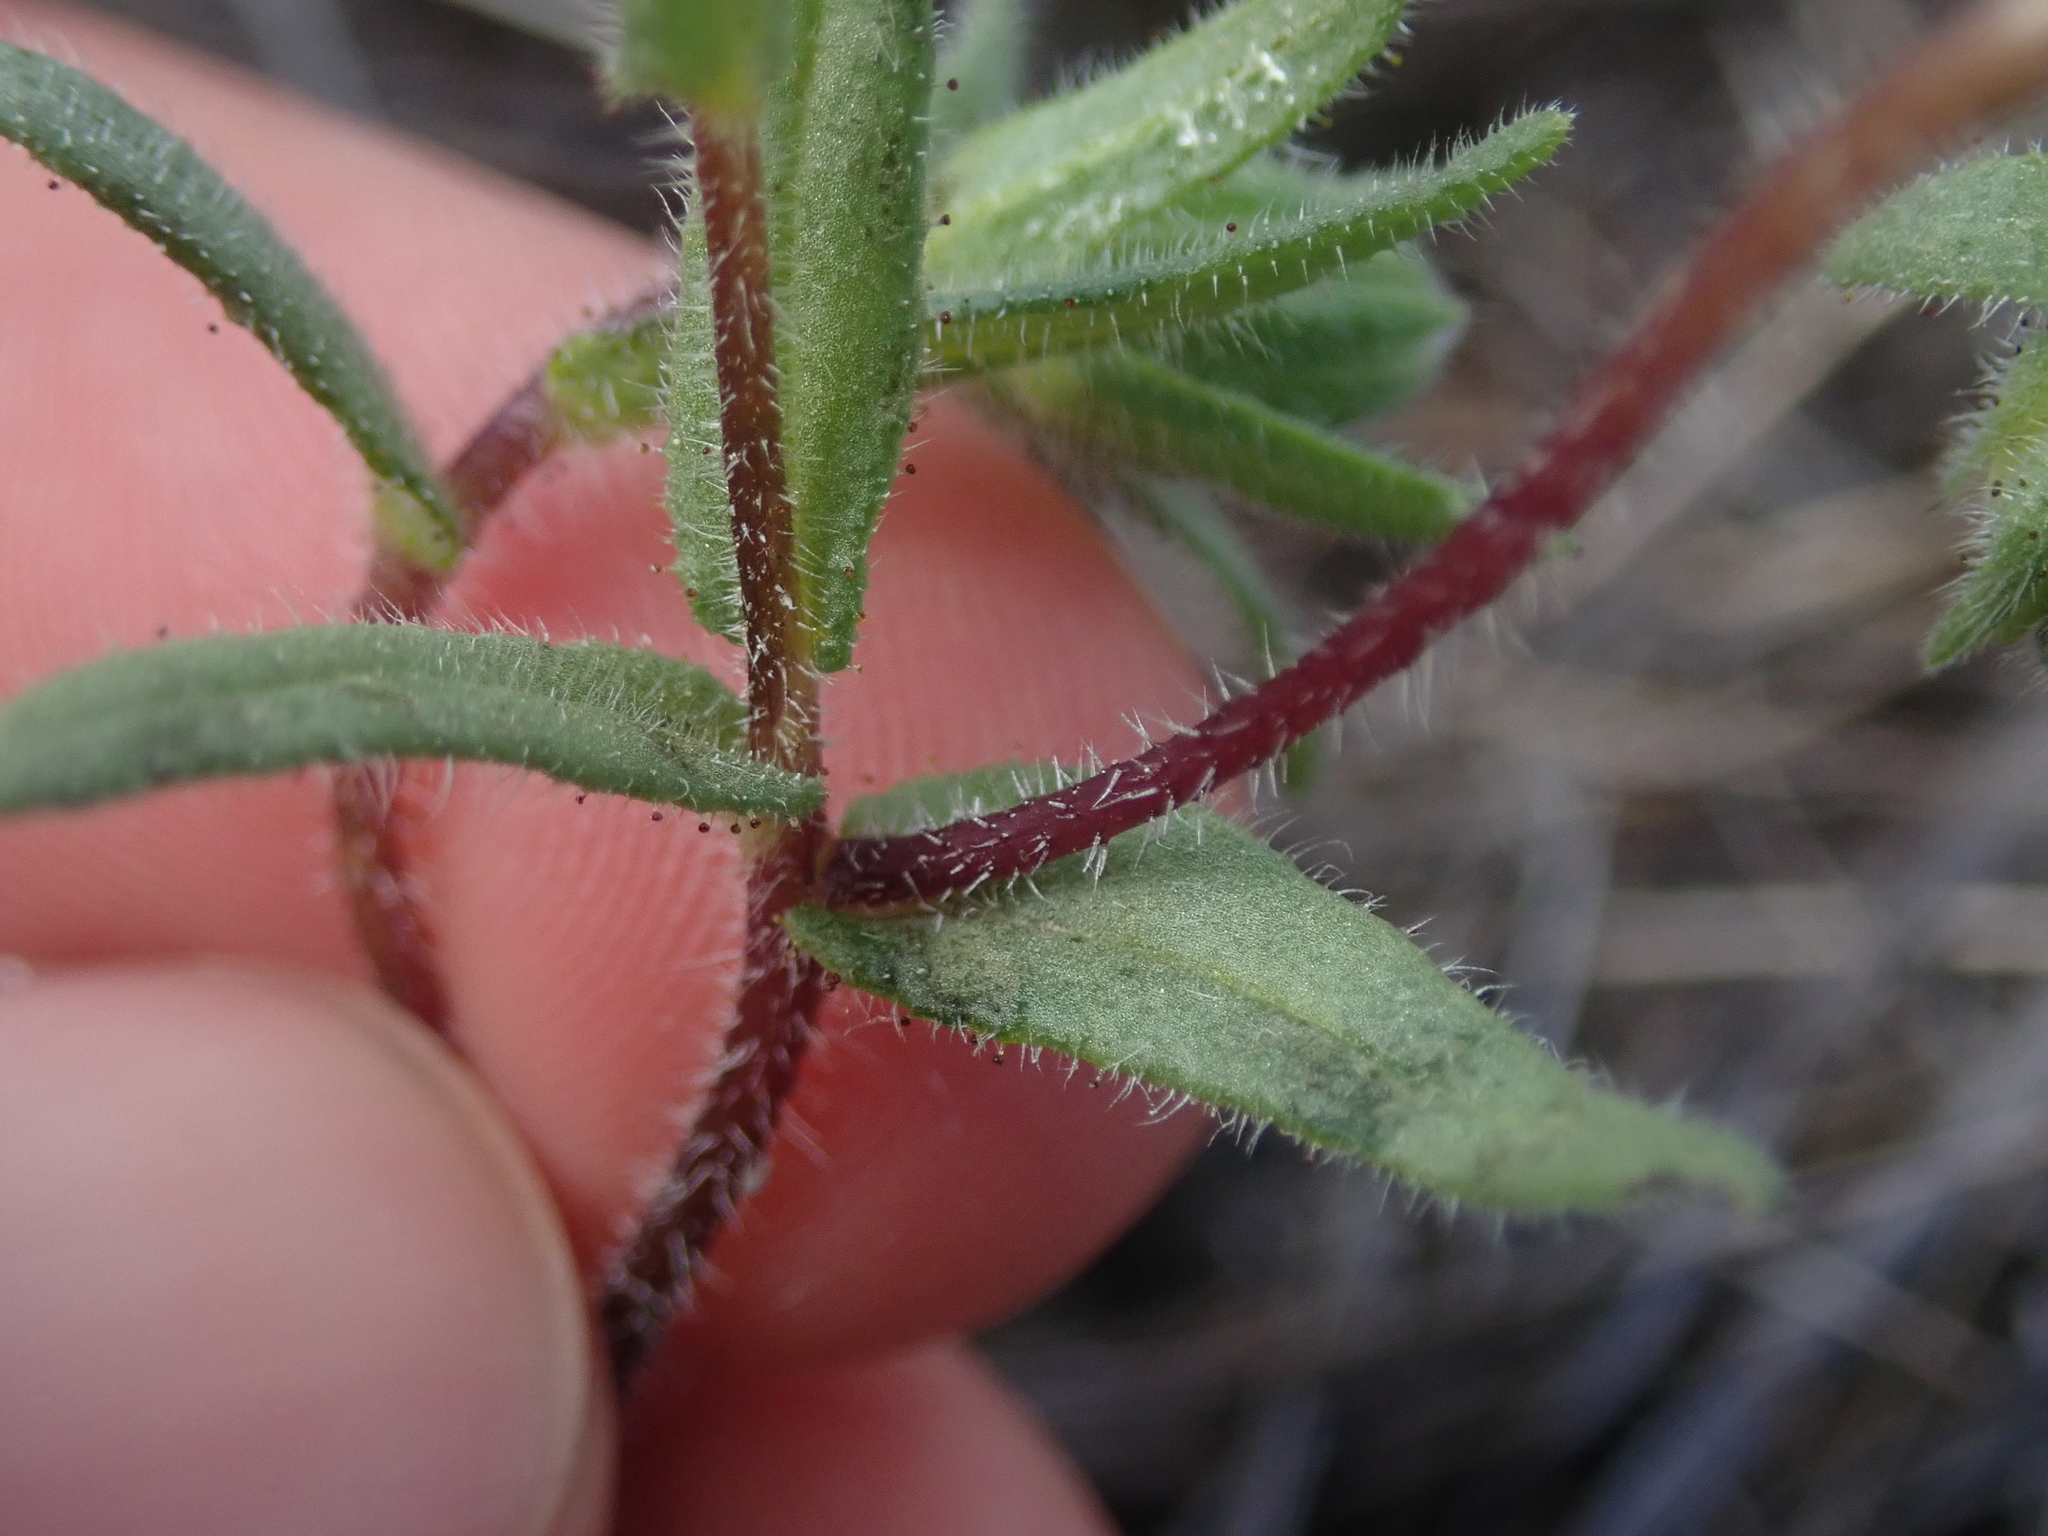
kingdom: Plantae
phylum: Tracheophyta
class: Magnoliopsida
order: Asterales
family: Asteraceae
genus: Layia
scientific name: Layia glandulosa
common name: White layia
